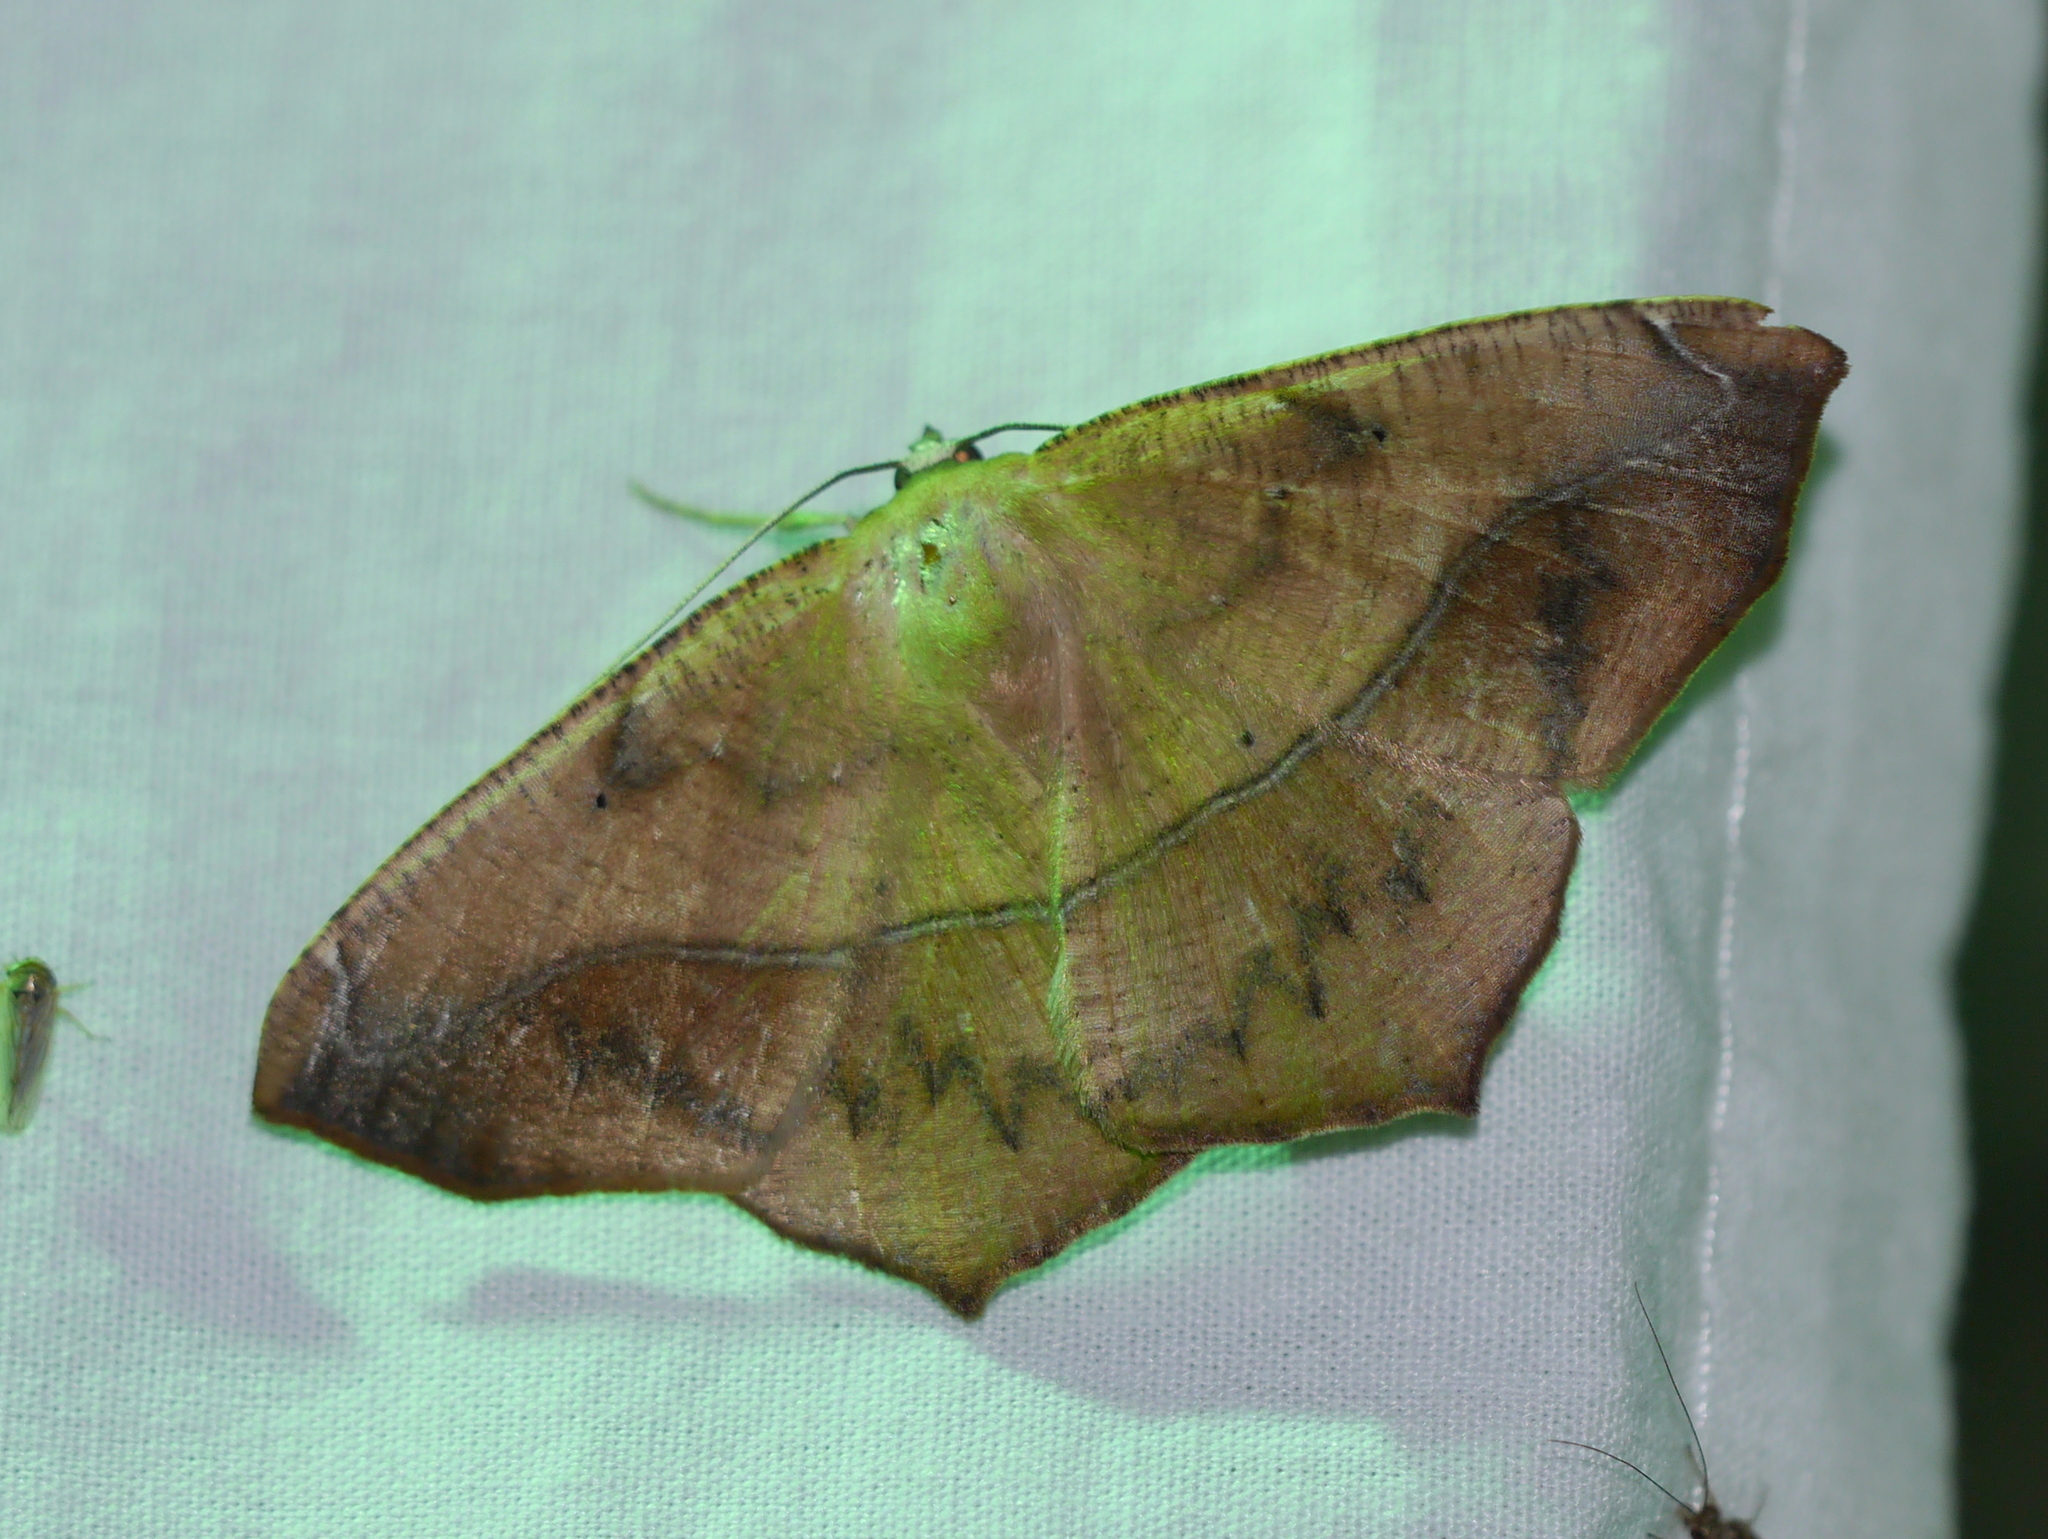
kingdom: Animalia
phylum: Arthropoda
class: Insecta
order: Lepidoptera
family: Geometridae
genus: Prochoerodes
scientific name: Prochoerodes lineola
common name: Large maple spanworm
